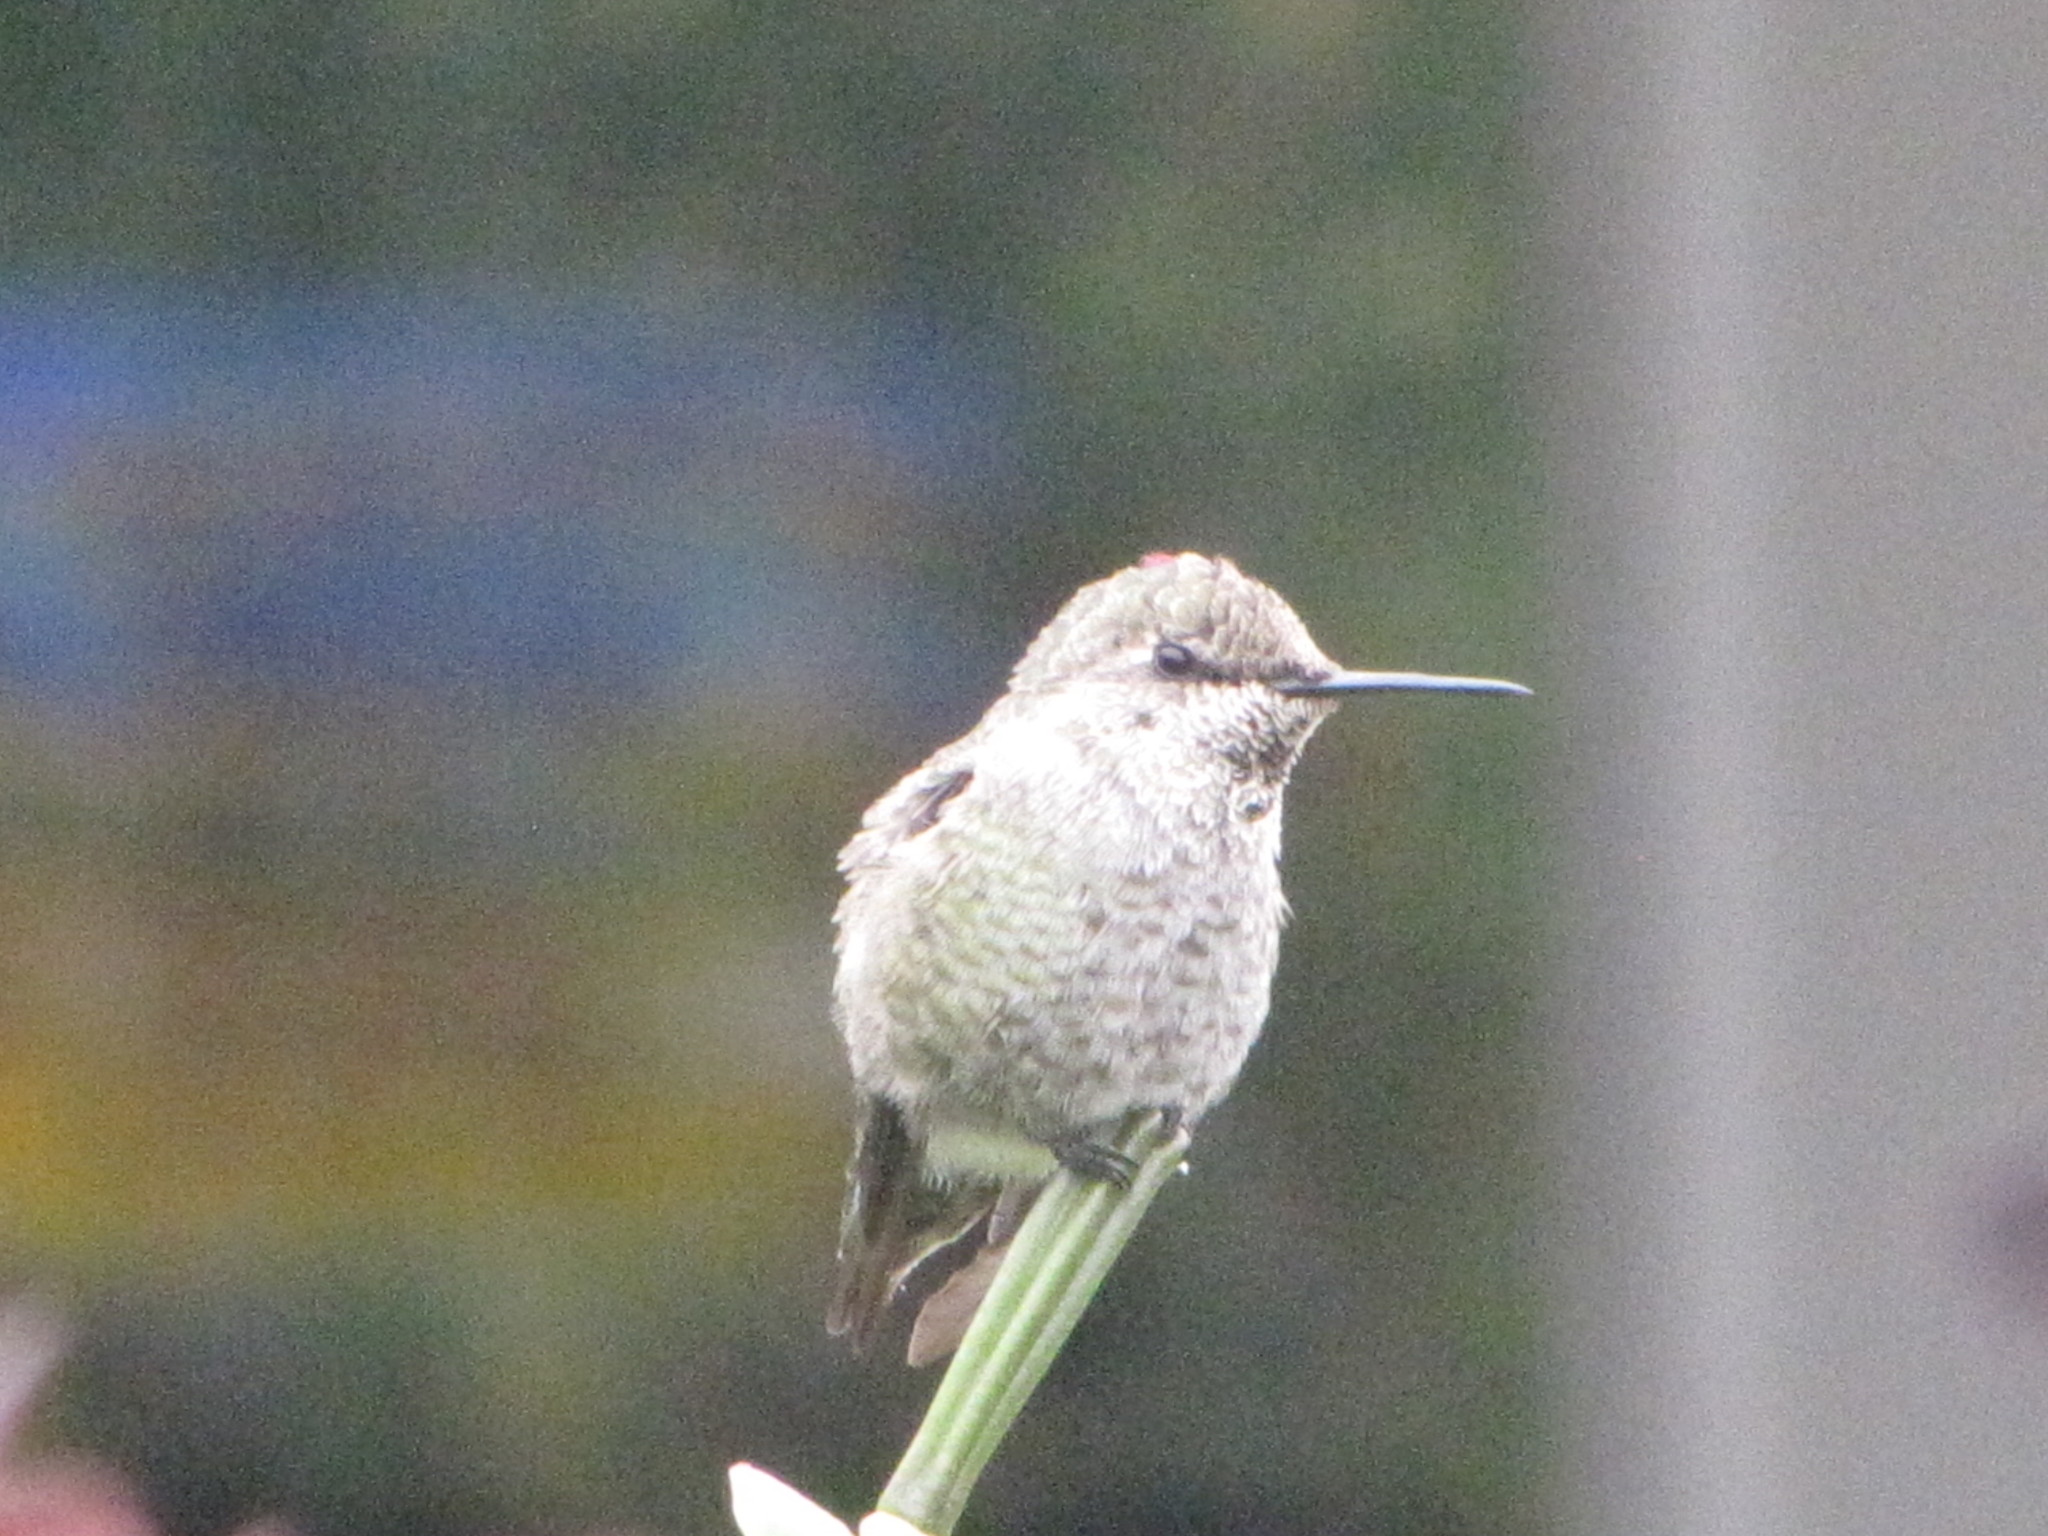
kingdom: Animalia
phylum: Chordata
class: Aves
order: Apodiformes
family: Trochilidae
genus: Calypte
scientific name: Calypte anna
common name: Anna's hummingbird
